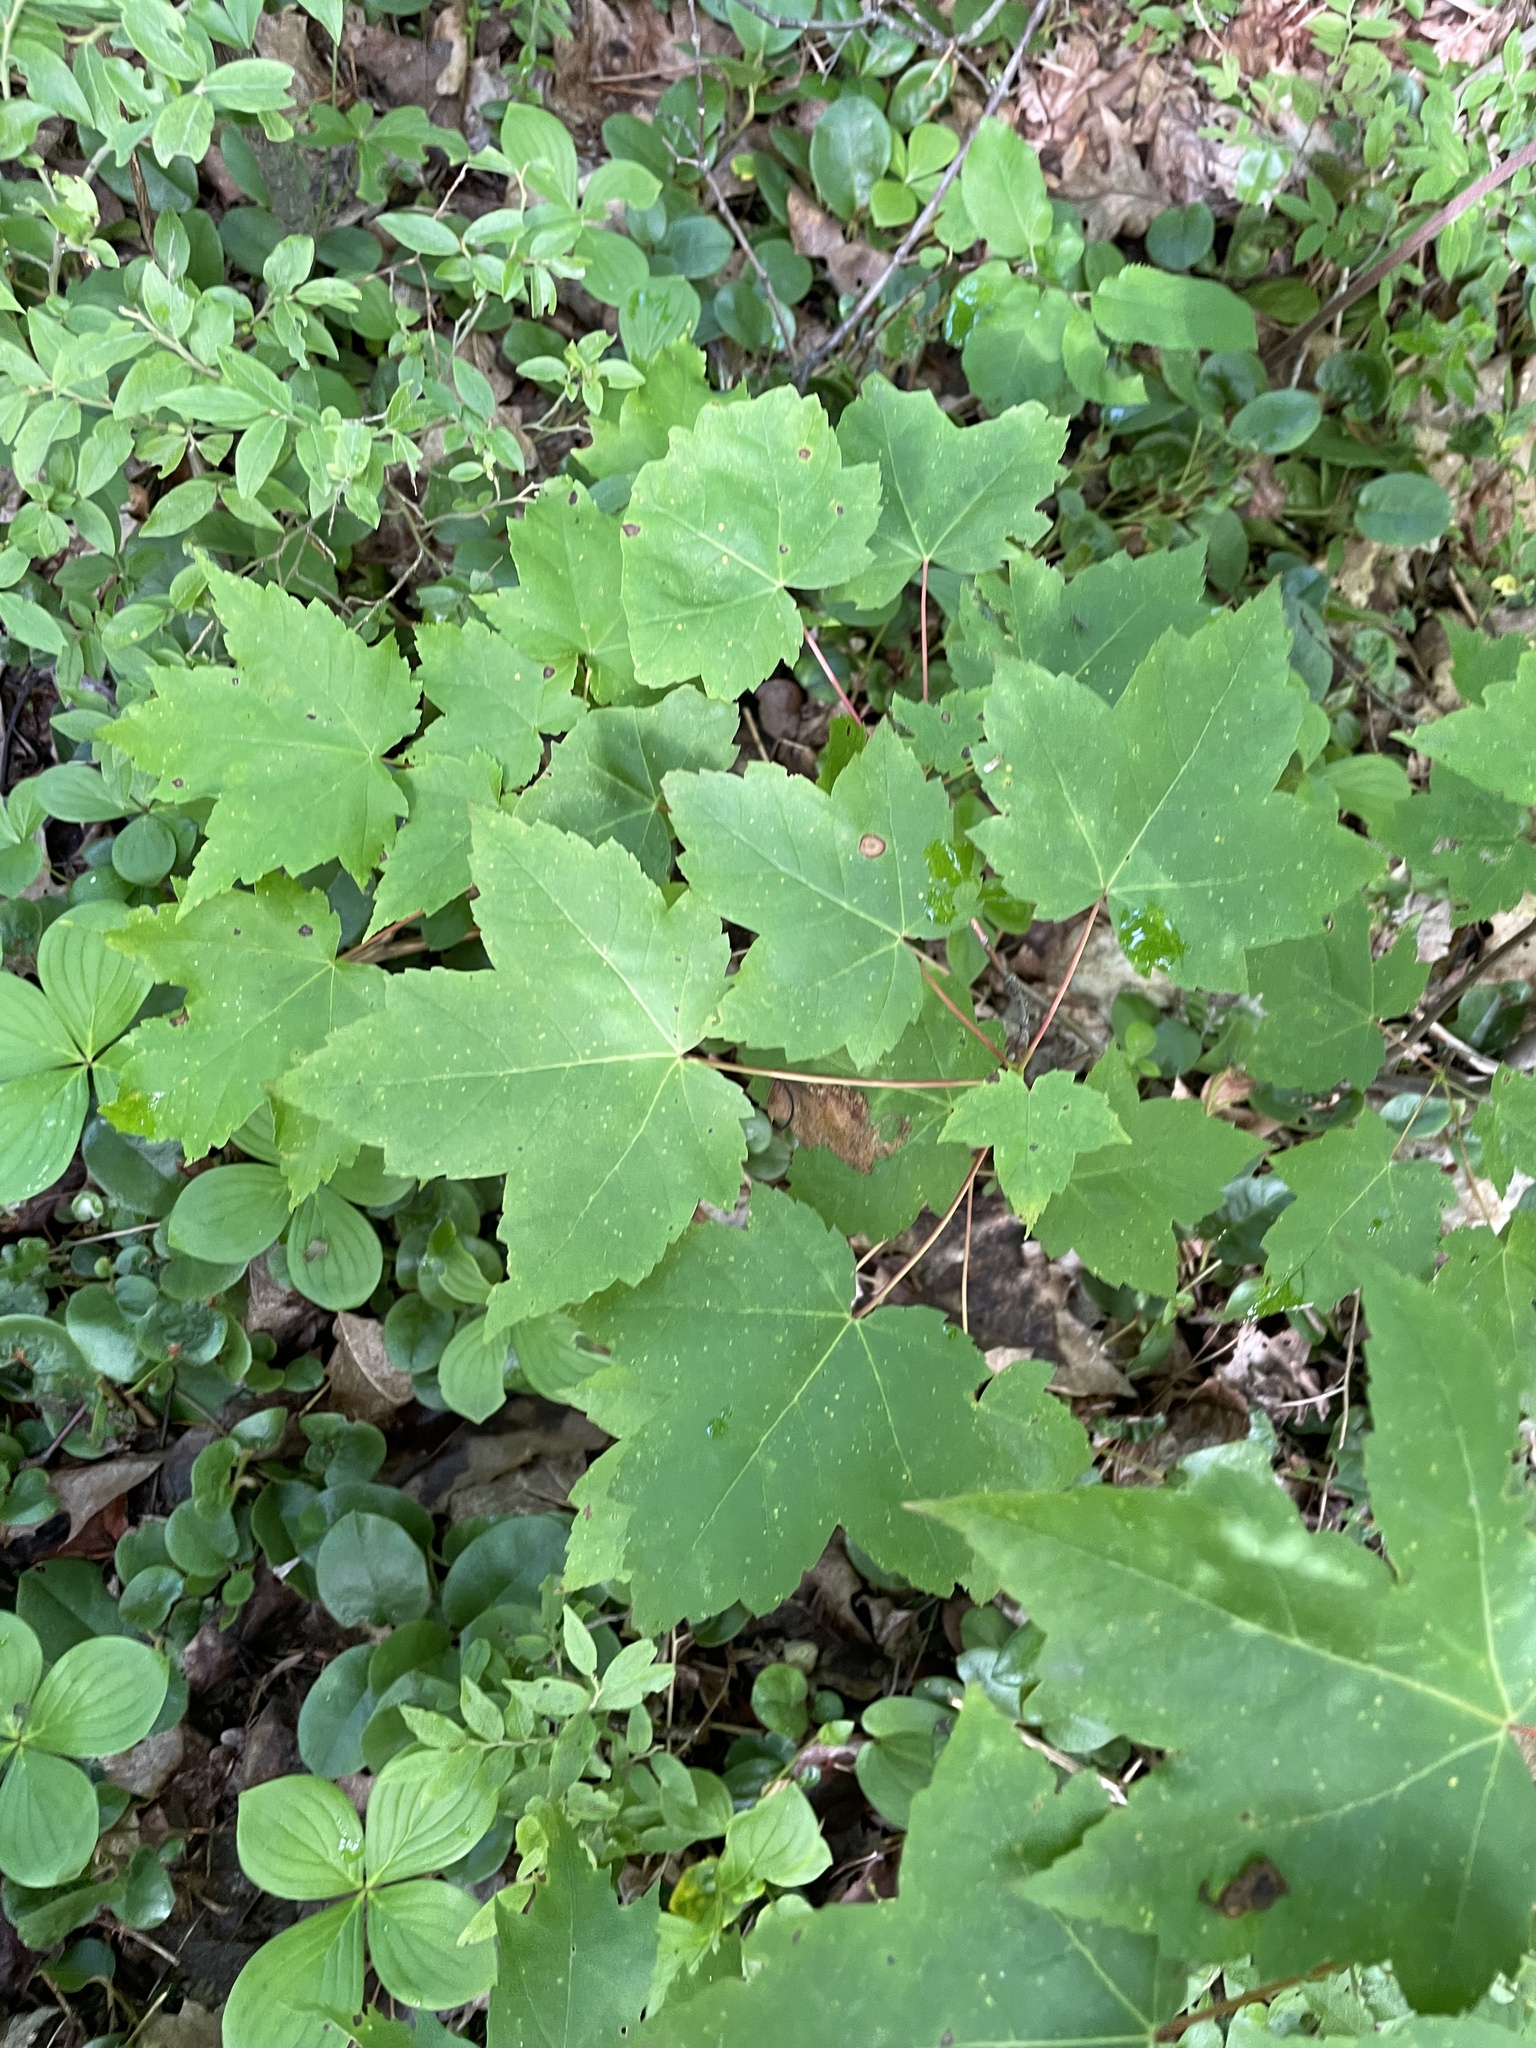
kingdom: Plantae
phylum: Tracheophyta
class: Magnoliopsida
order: Sapindales
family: Sapindaceae
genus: Acer
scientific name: Acer rubrum
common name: Red maple
